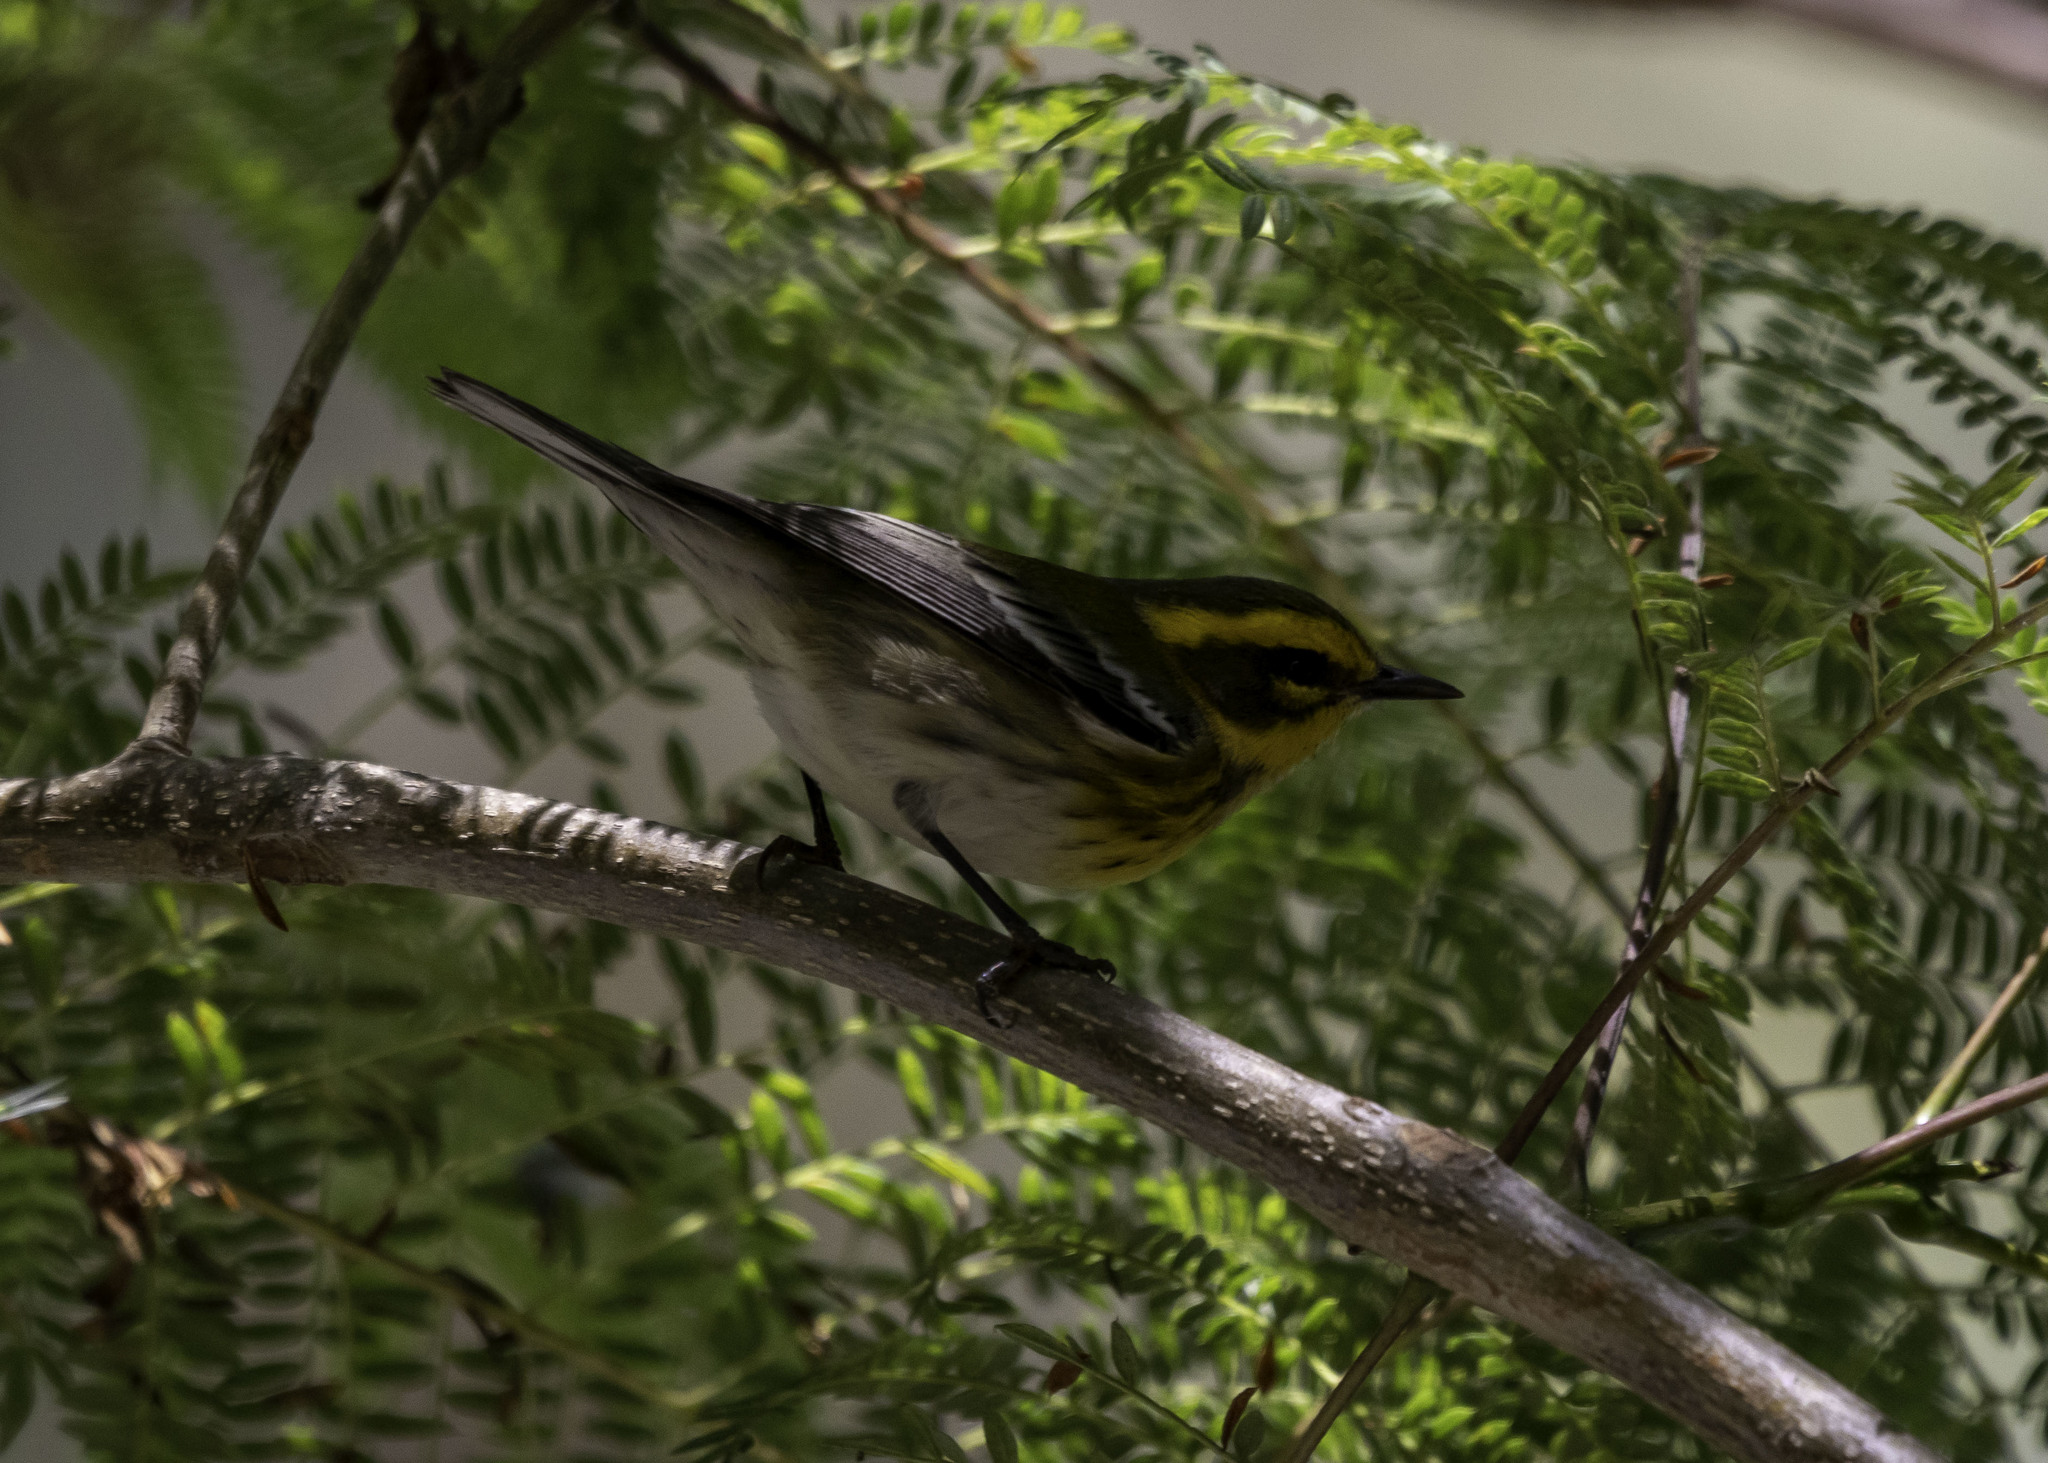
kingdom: Animalia
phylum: Chordata
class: Aves
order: Passeriformes
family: Parulidae
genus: Setophaga
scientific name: Setophaga townsendi
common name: Townsend's warbler
